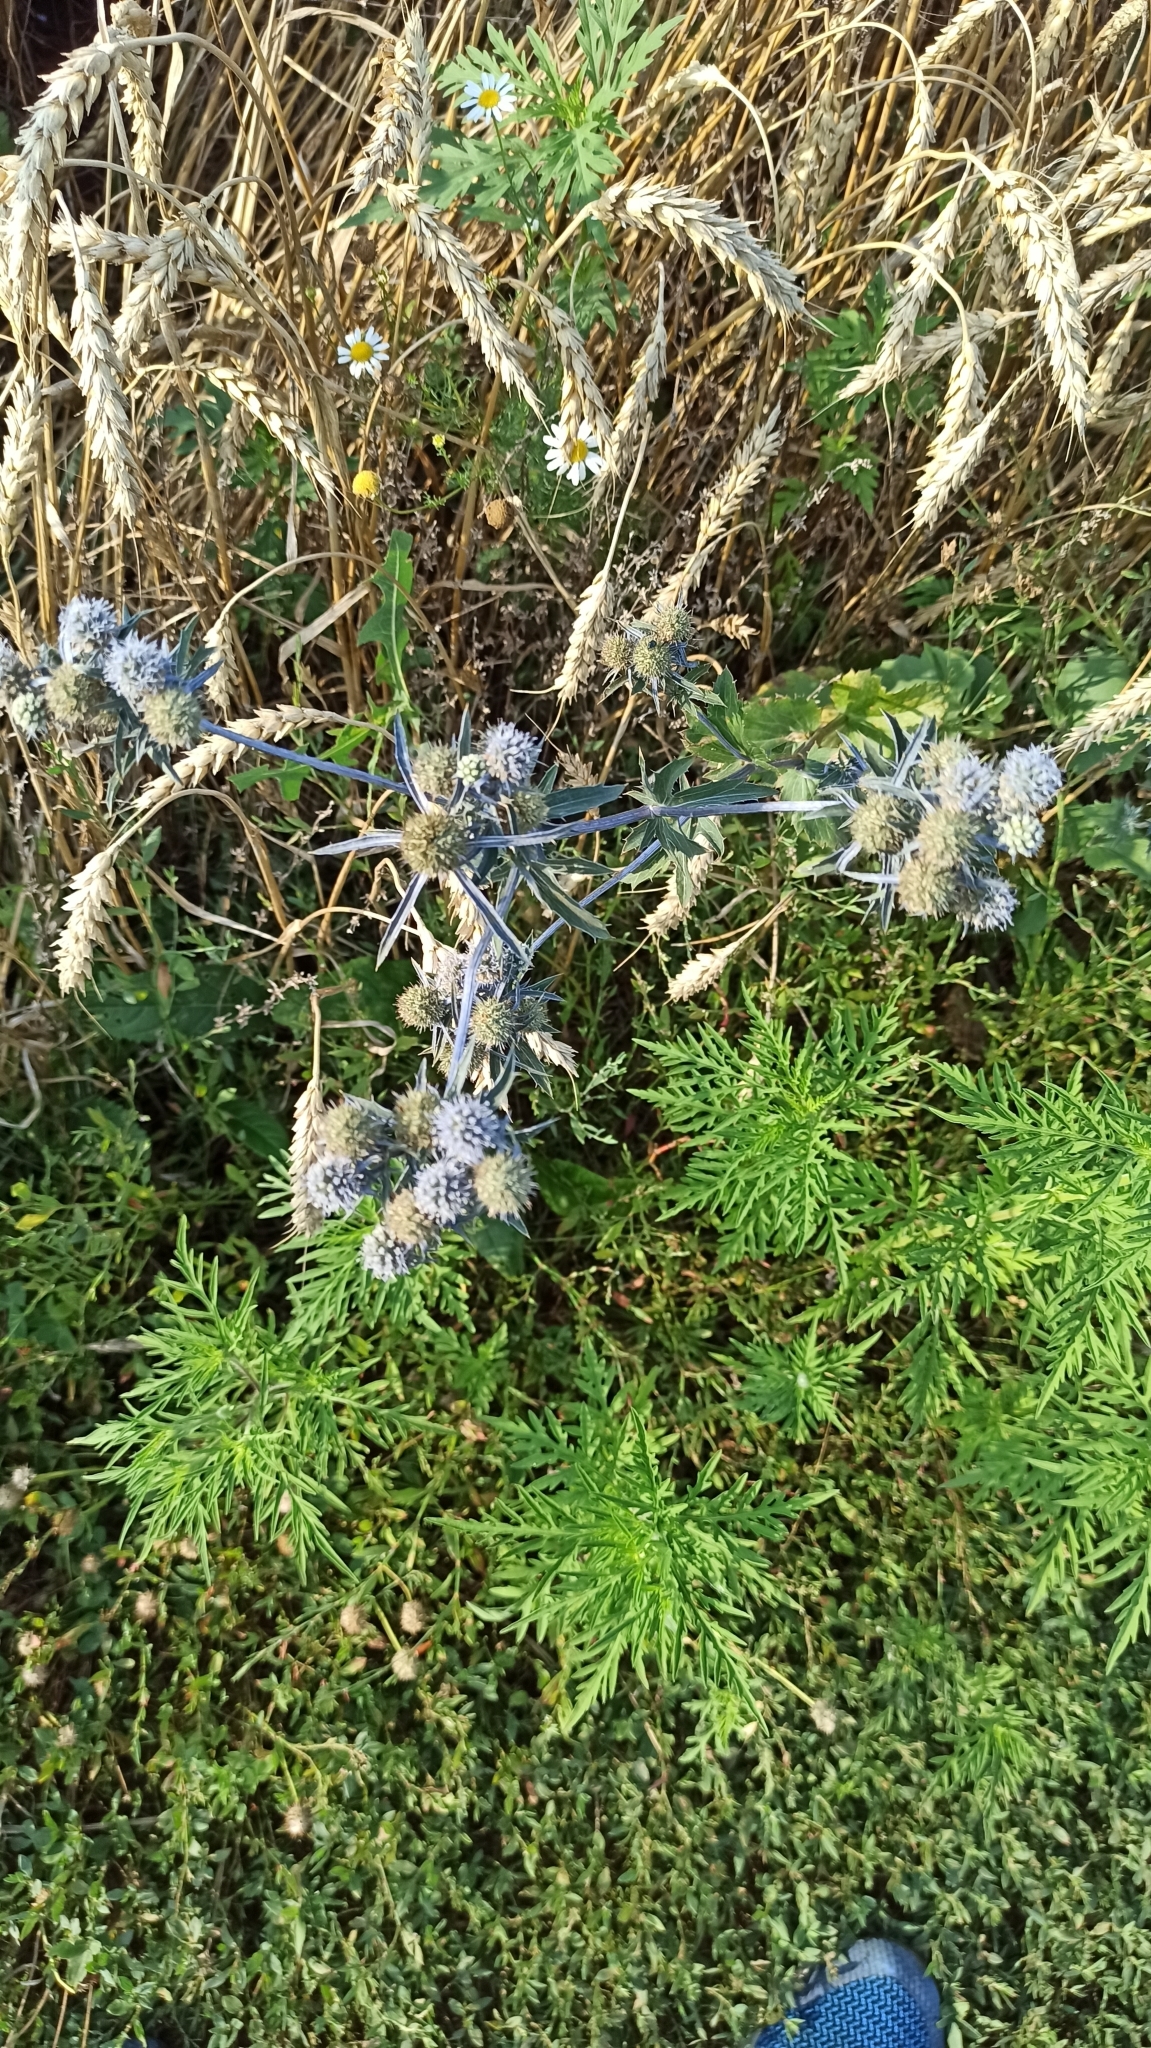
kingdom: Plantae
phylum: Tracheophyta
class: Magnoliopsida
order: Apiales
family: Apiaceae
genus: Eryngium
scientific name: Eryngium planum
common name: Blue eryngo
